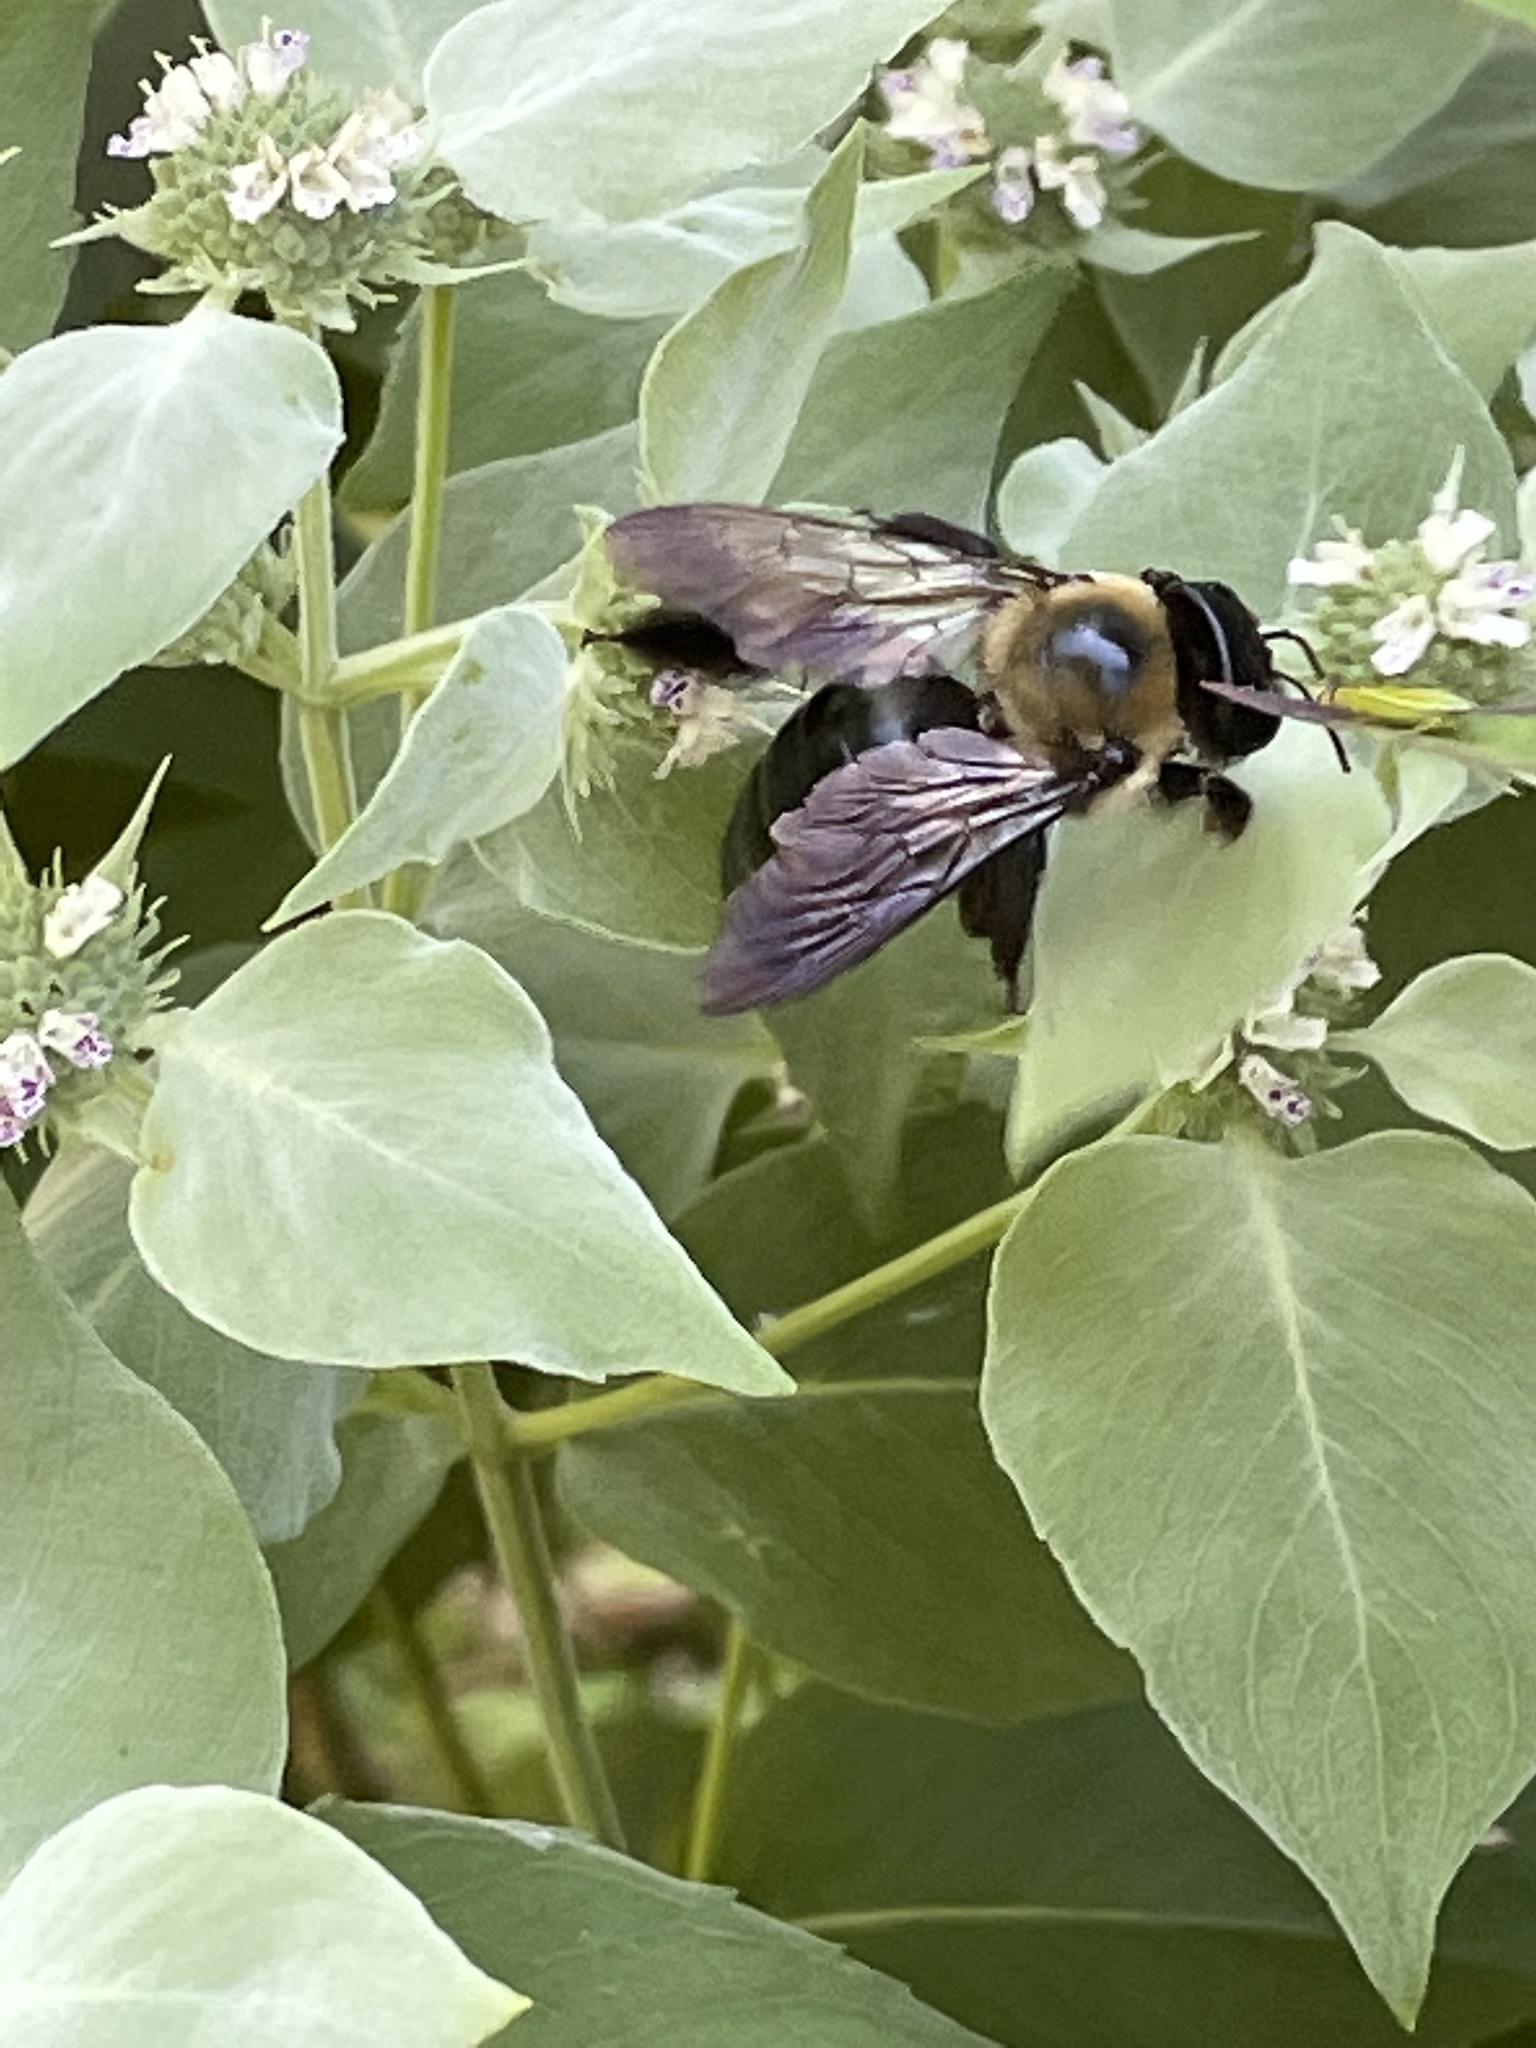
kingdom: Animalia
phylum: Arthropoda
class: Insecta
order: Hymenoptera
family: Apidae
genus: Xylocopa
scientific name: Xylocopa virginica
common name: Carpenter bee
